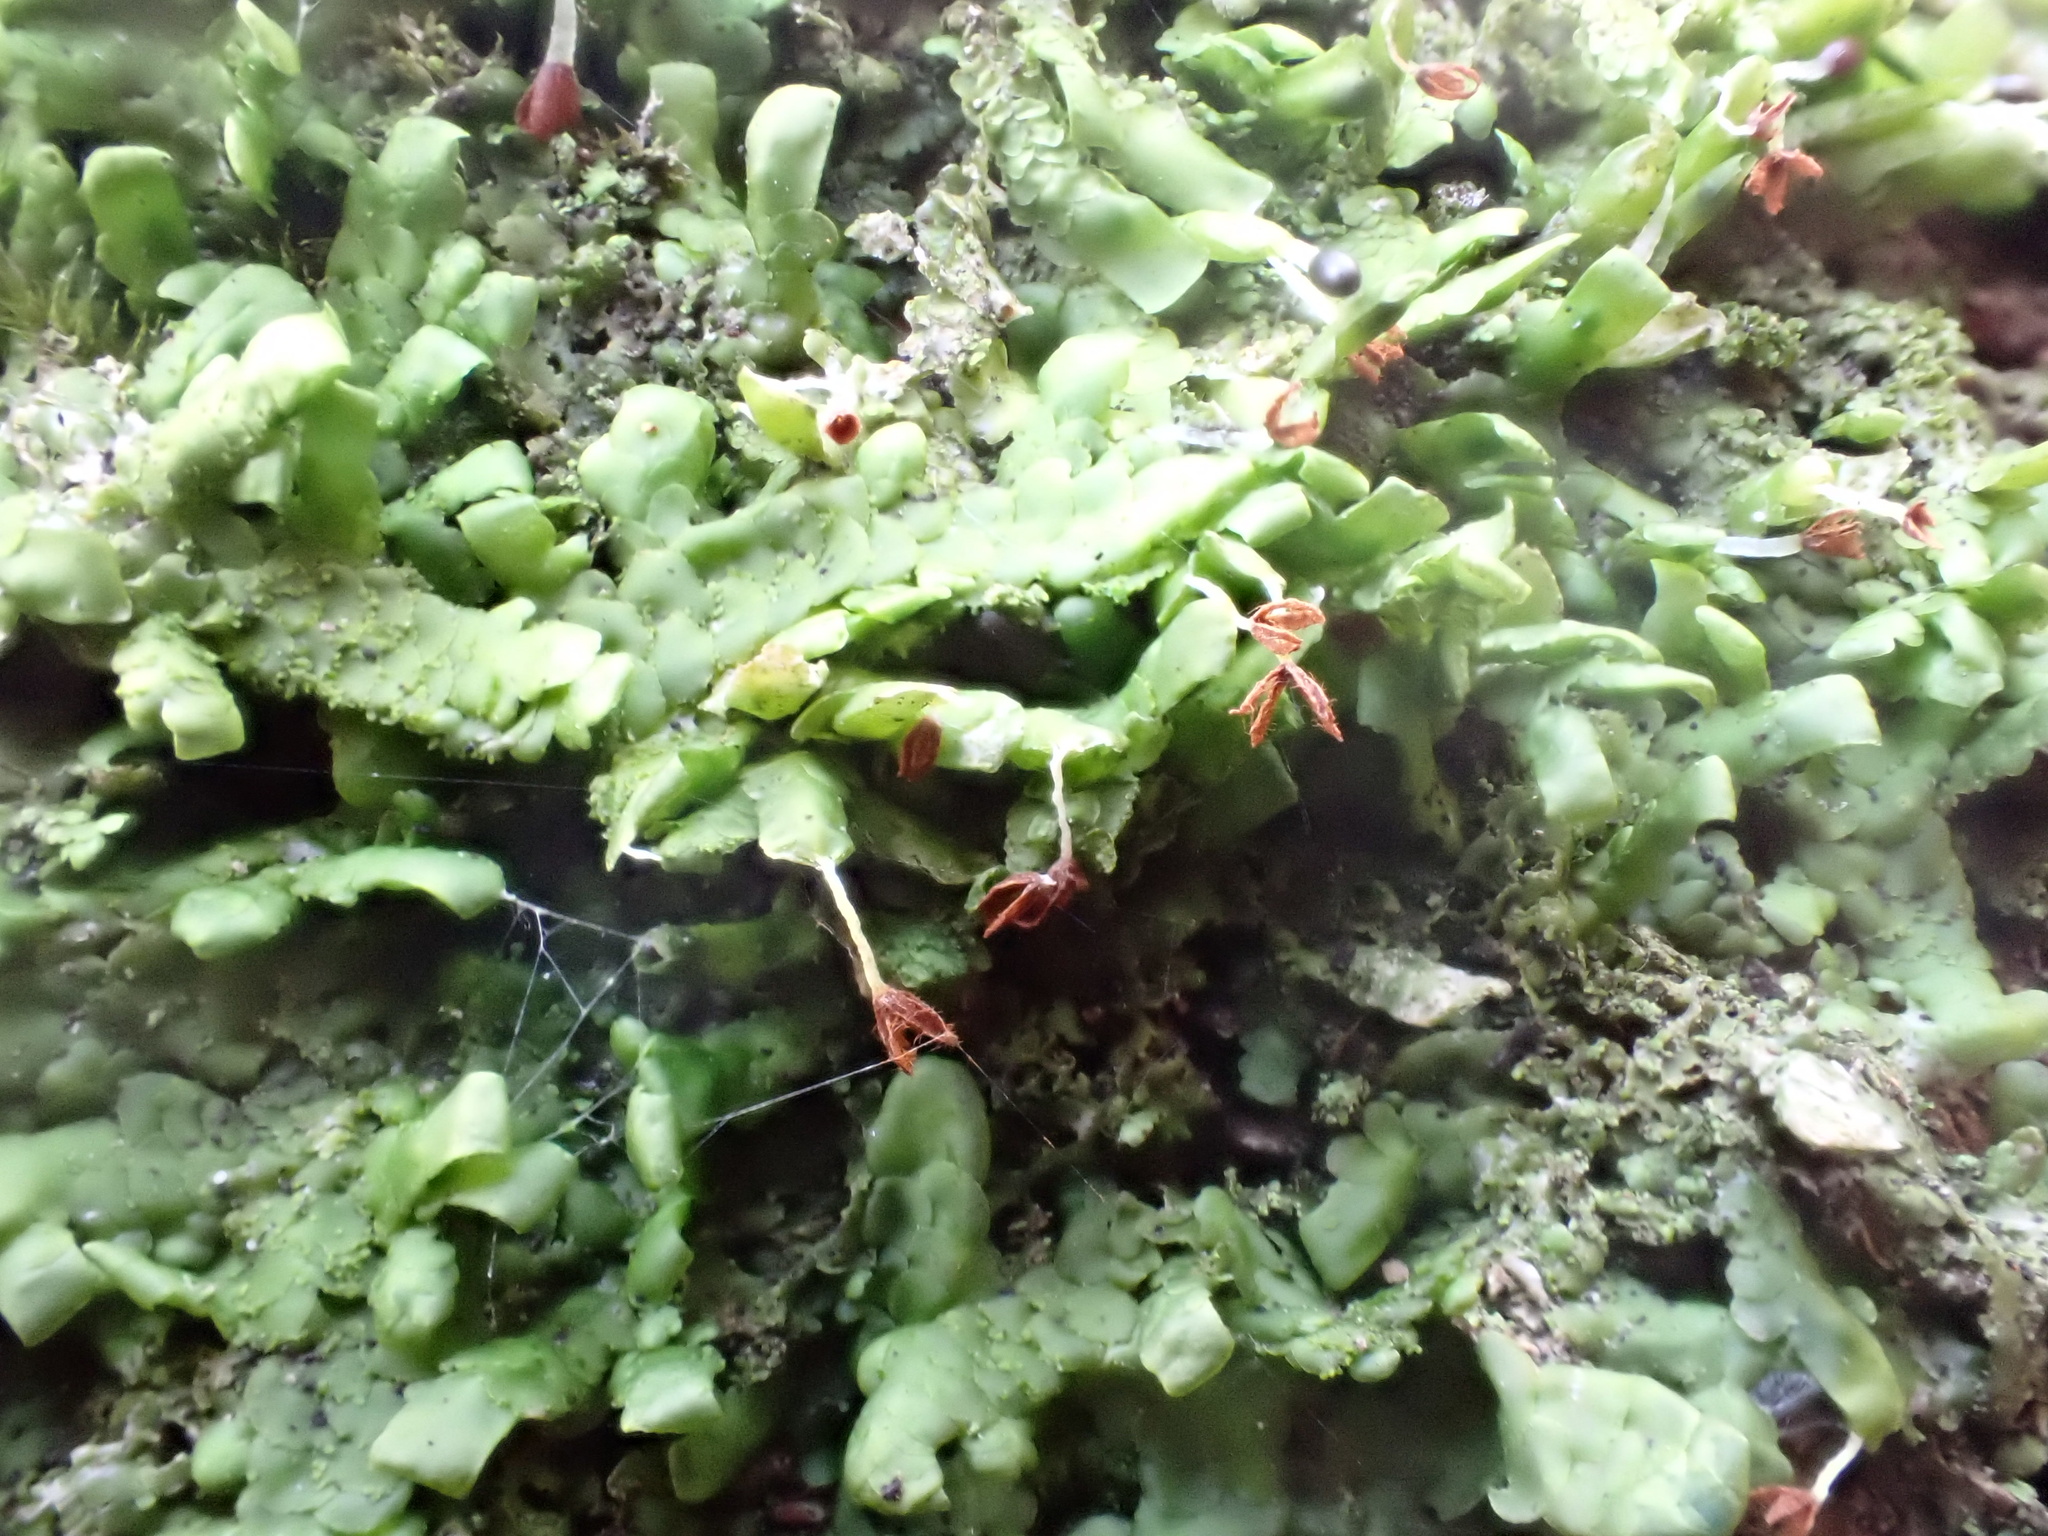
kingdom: Plantae
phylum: Marchantiophyta
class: Jungermanniopsida
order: Porellales
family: Radulaceae
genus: Radula
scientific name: Radula complanata
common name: Flat-leaved scalewort
